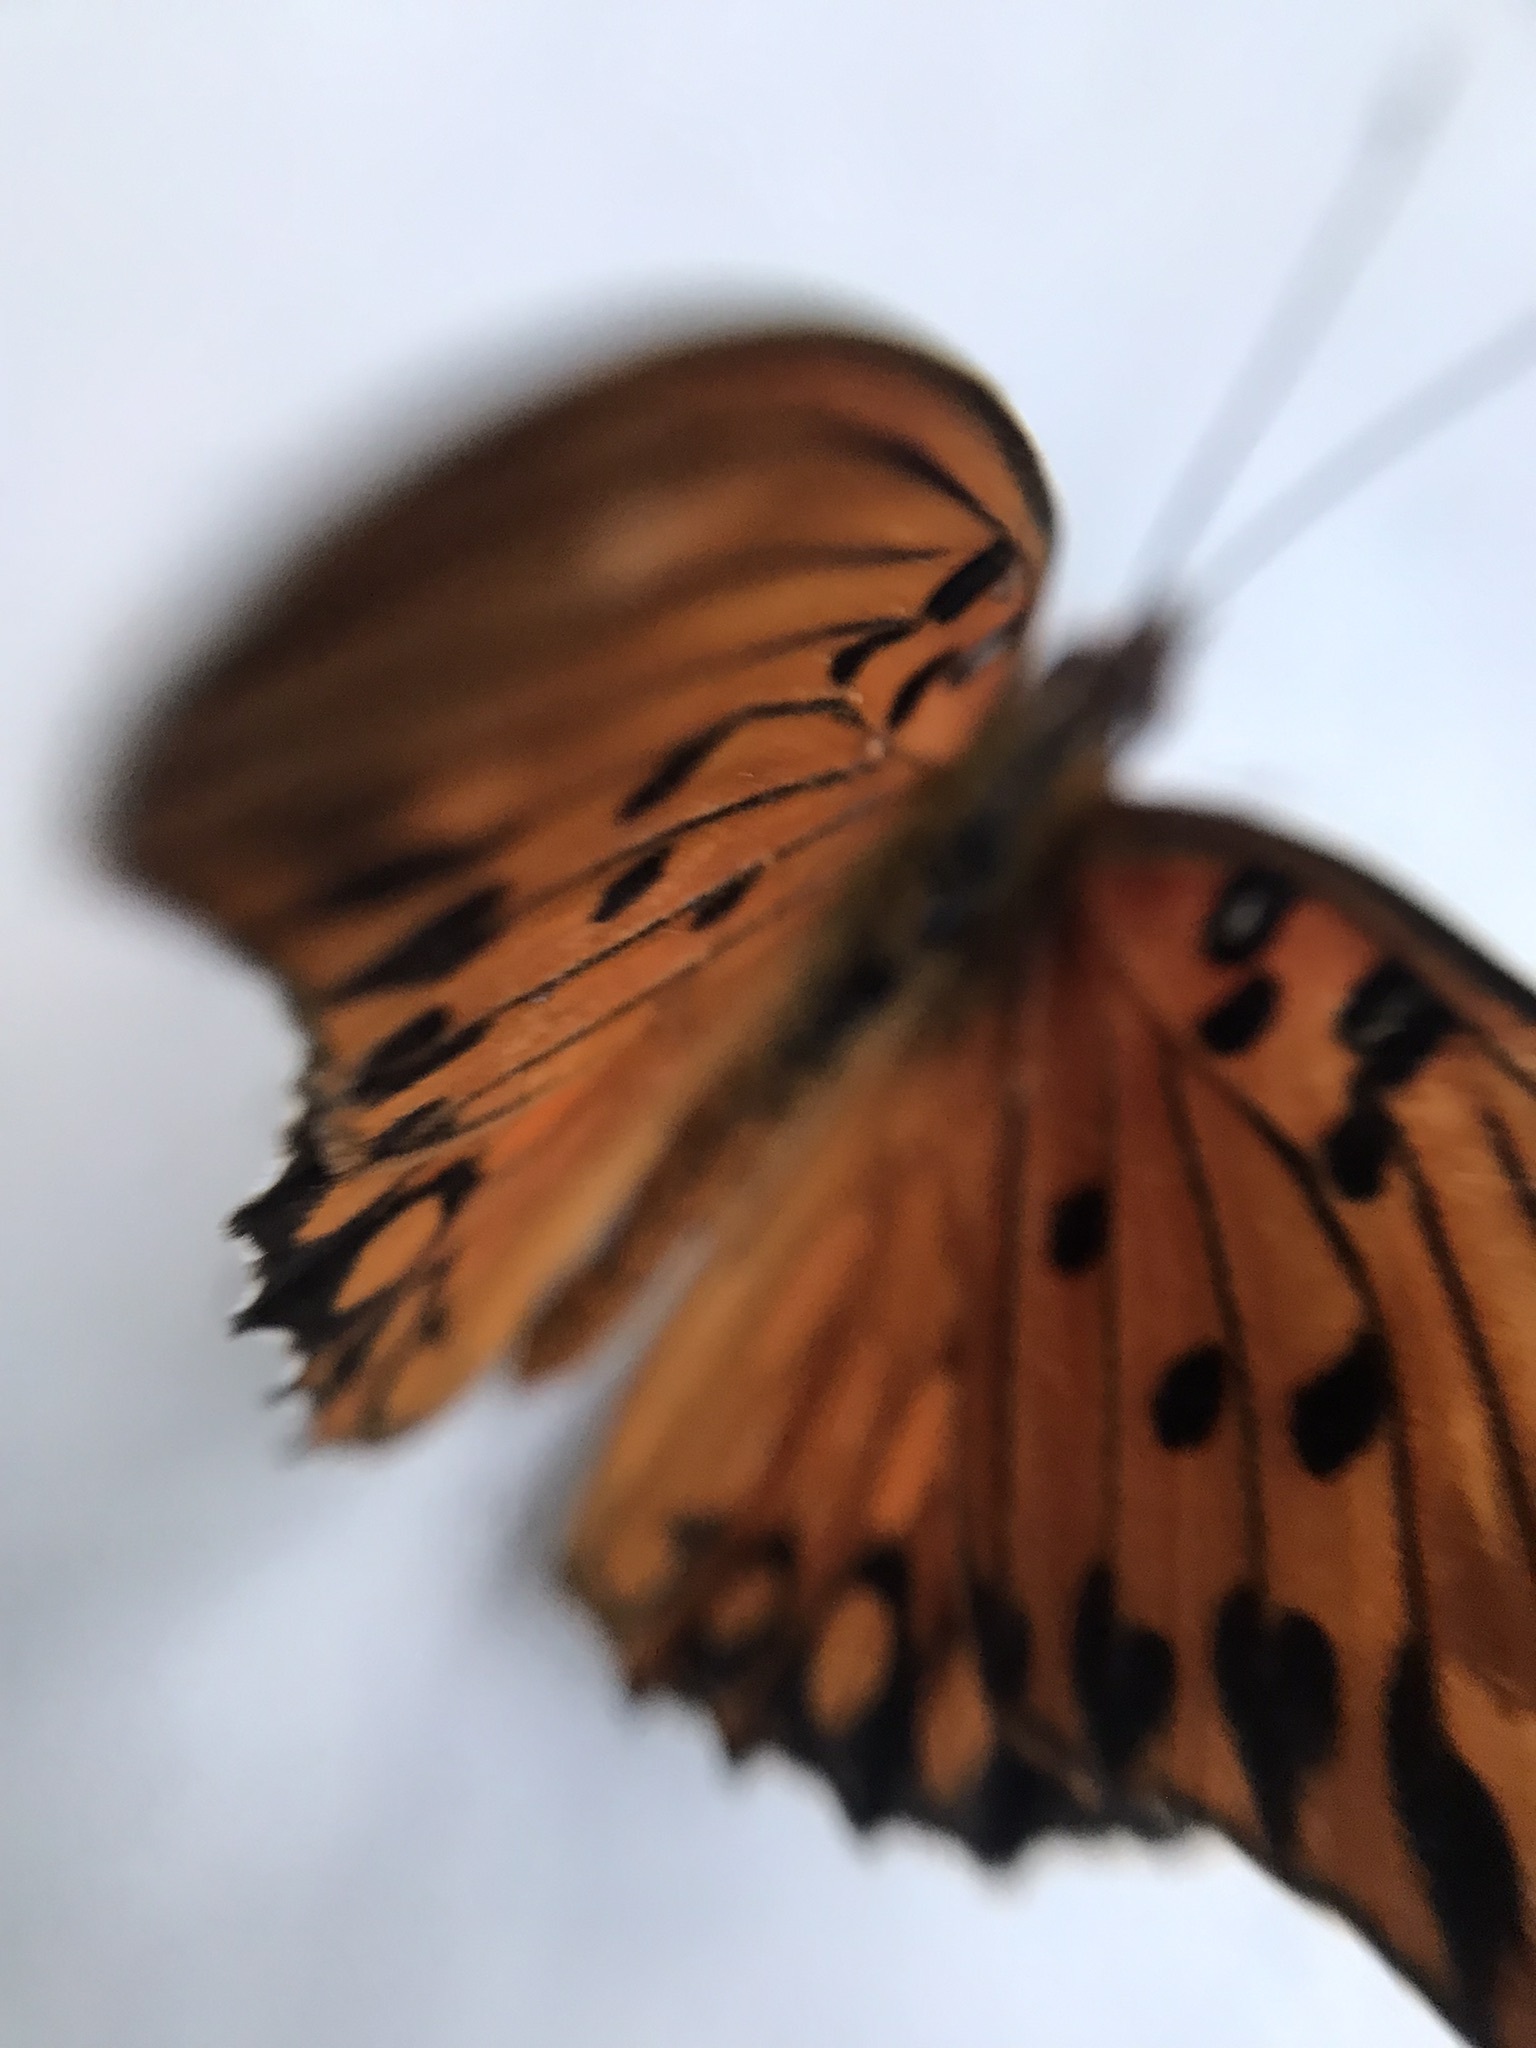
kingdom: Animalia
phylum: Arthropoda
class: Insecta
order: Lepidoptera
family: Nymphalidae
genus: Dione
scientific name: Dione vanillae
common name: Gulf fritillary
